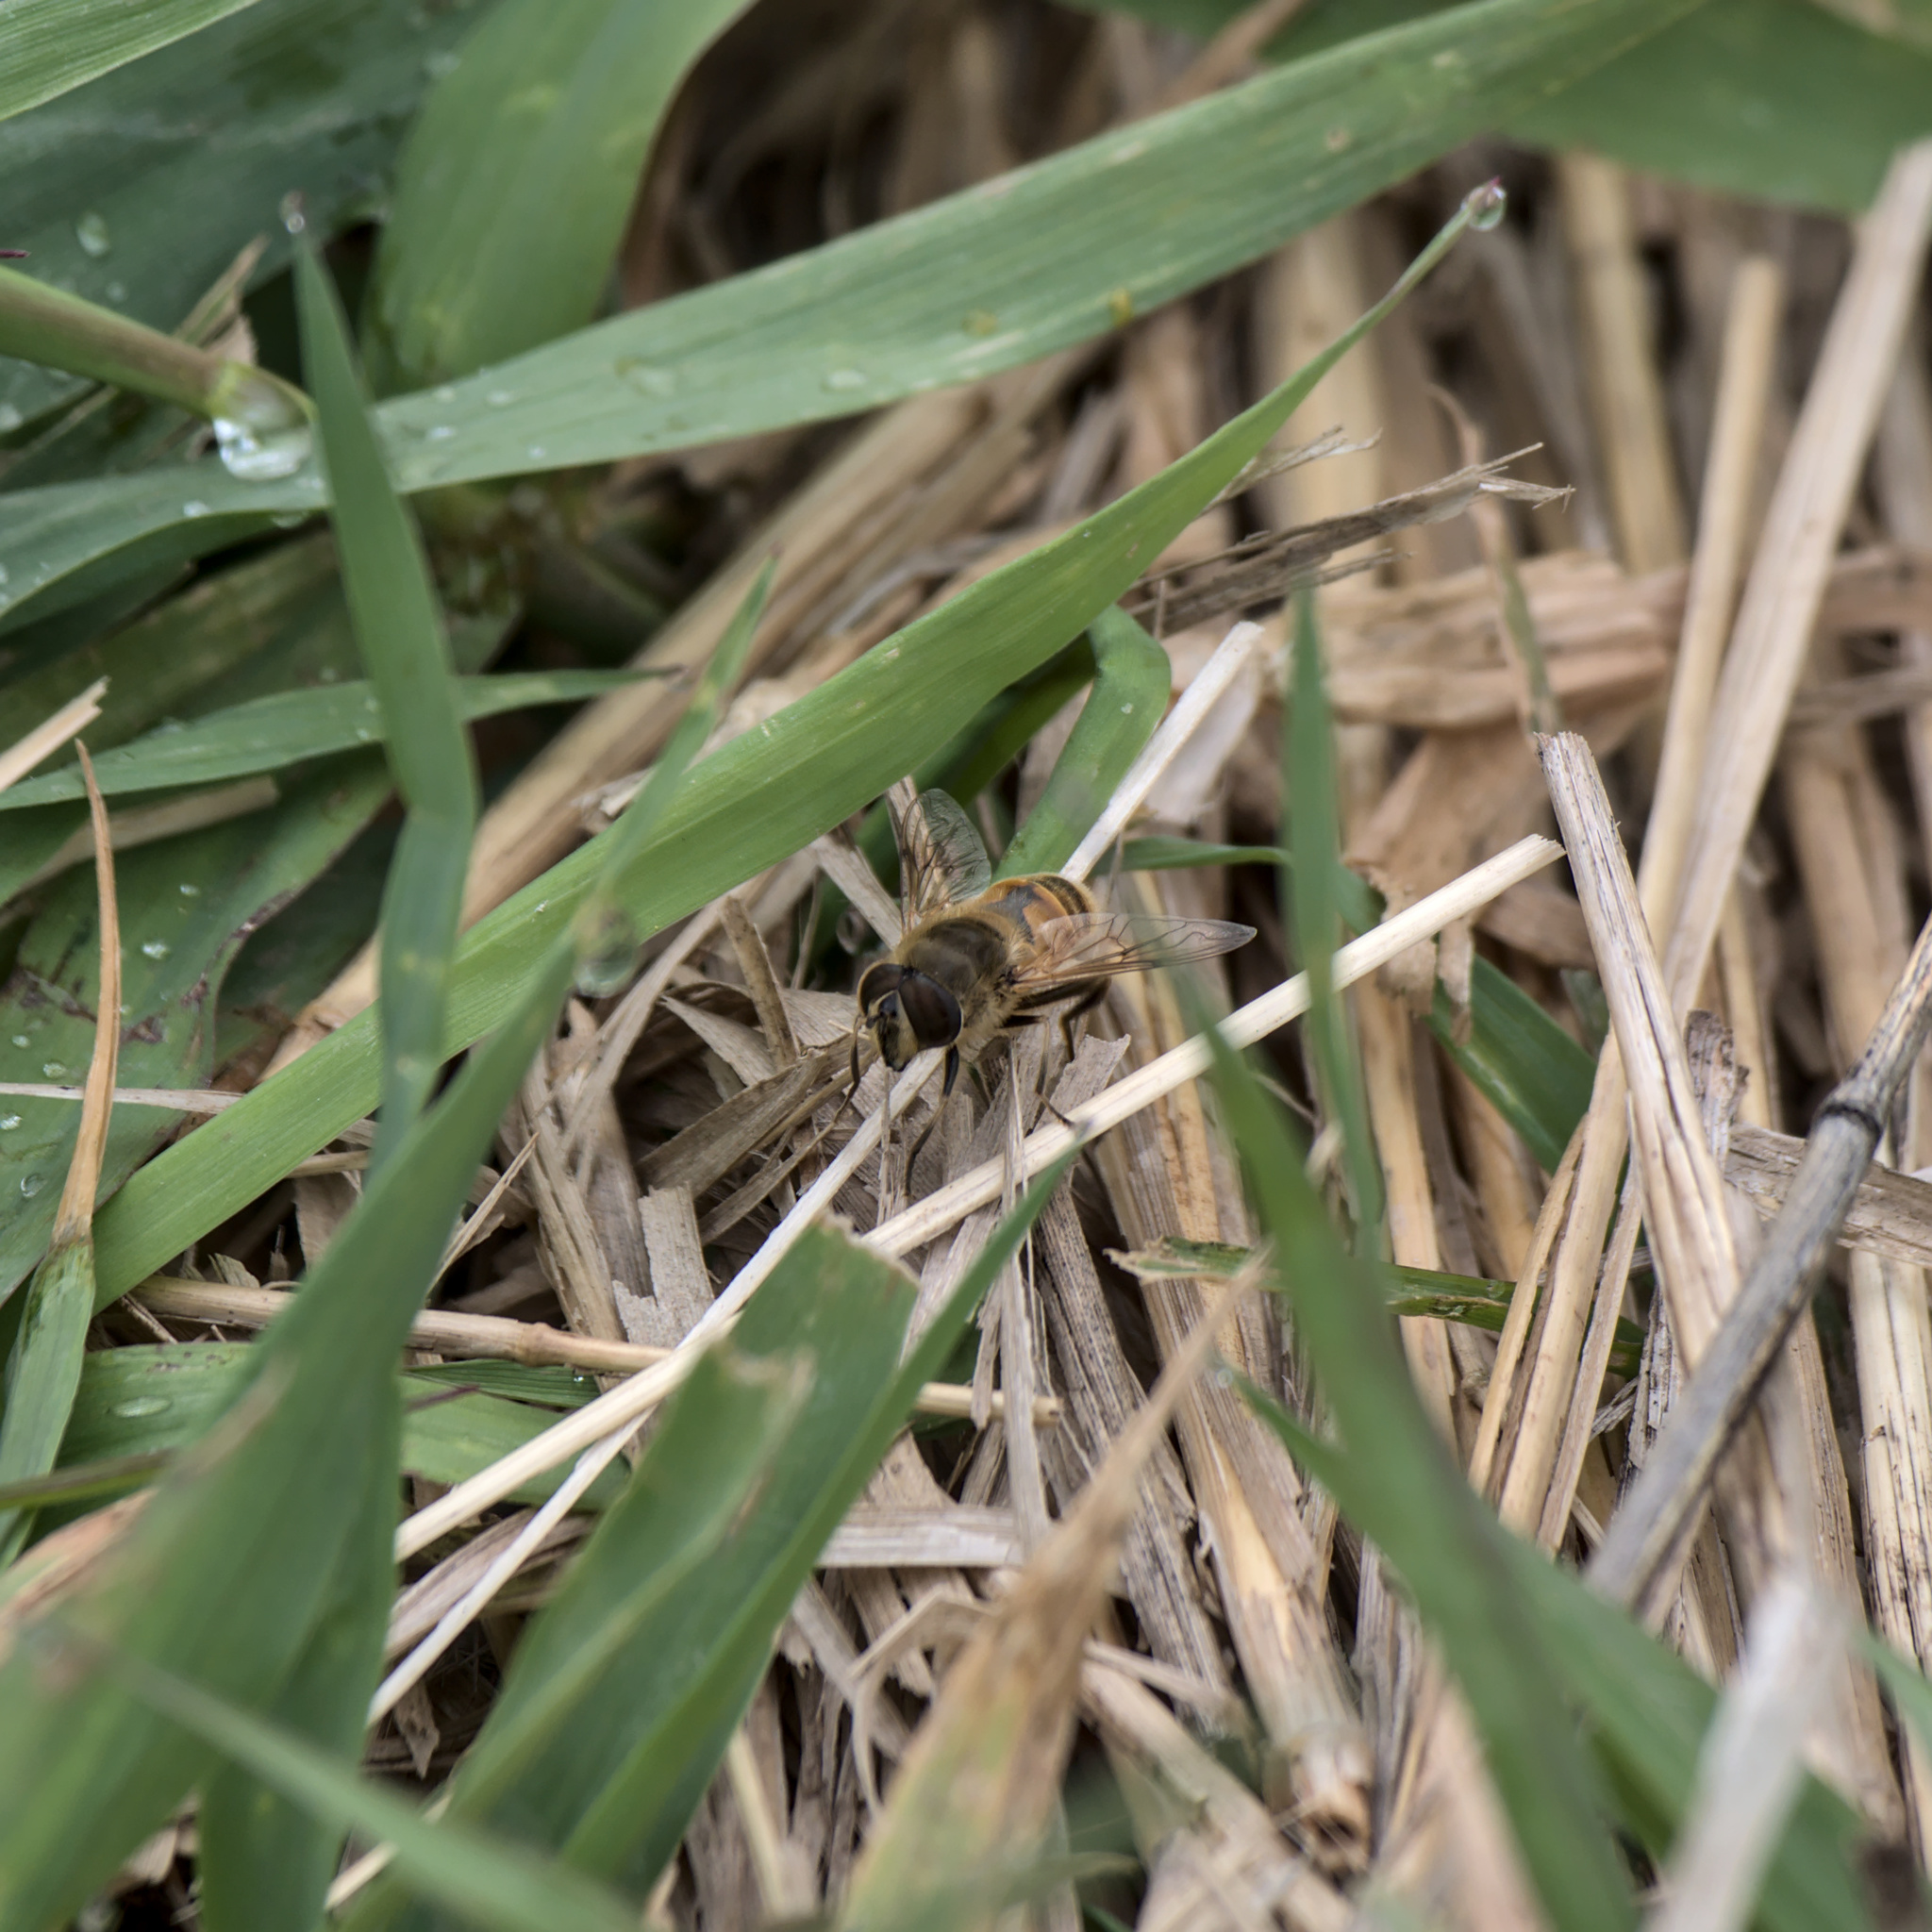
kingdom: Animalia
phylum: Arthropoda
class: Insecta
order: Diptera
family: Syrphidae
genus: Eristalis
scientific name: Eristalis tenax
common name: Drone fly
